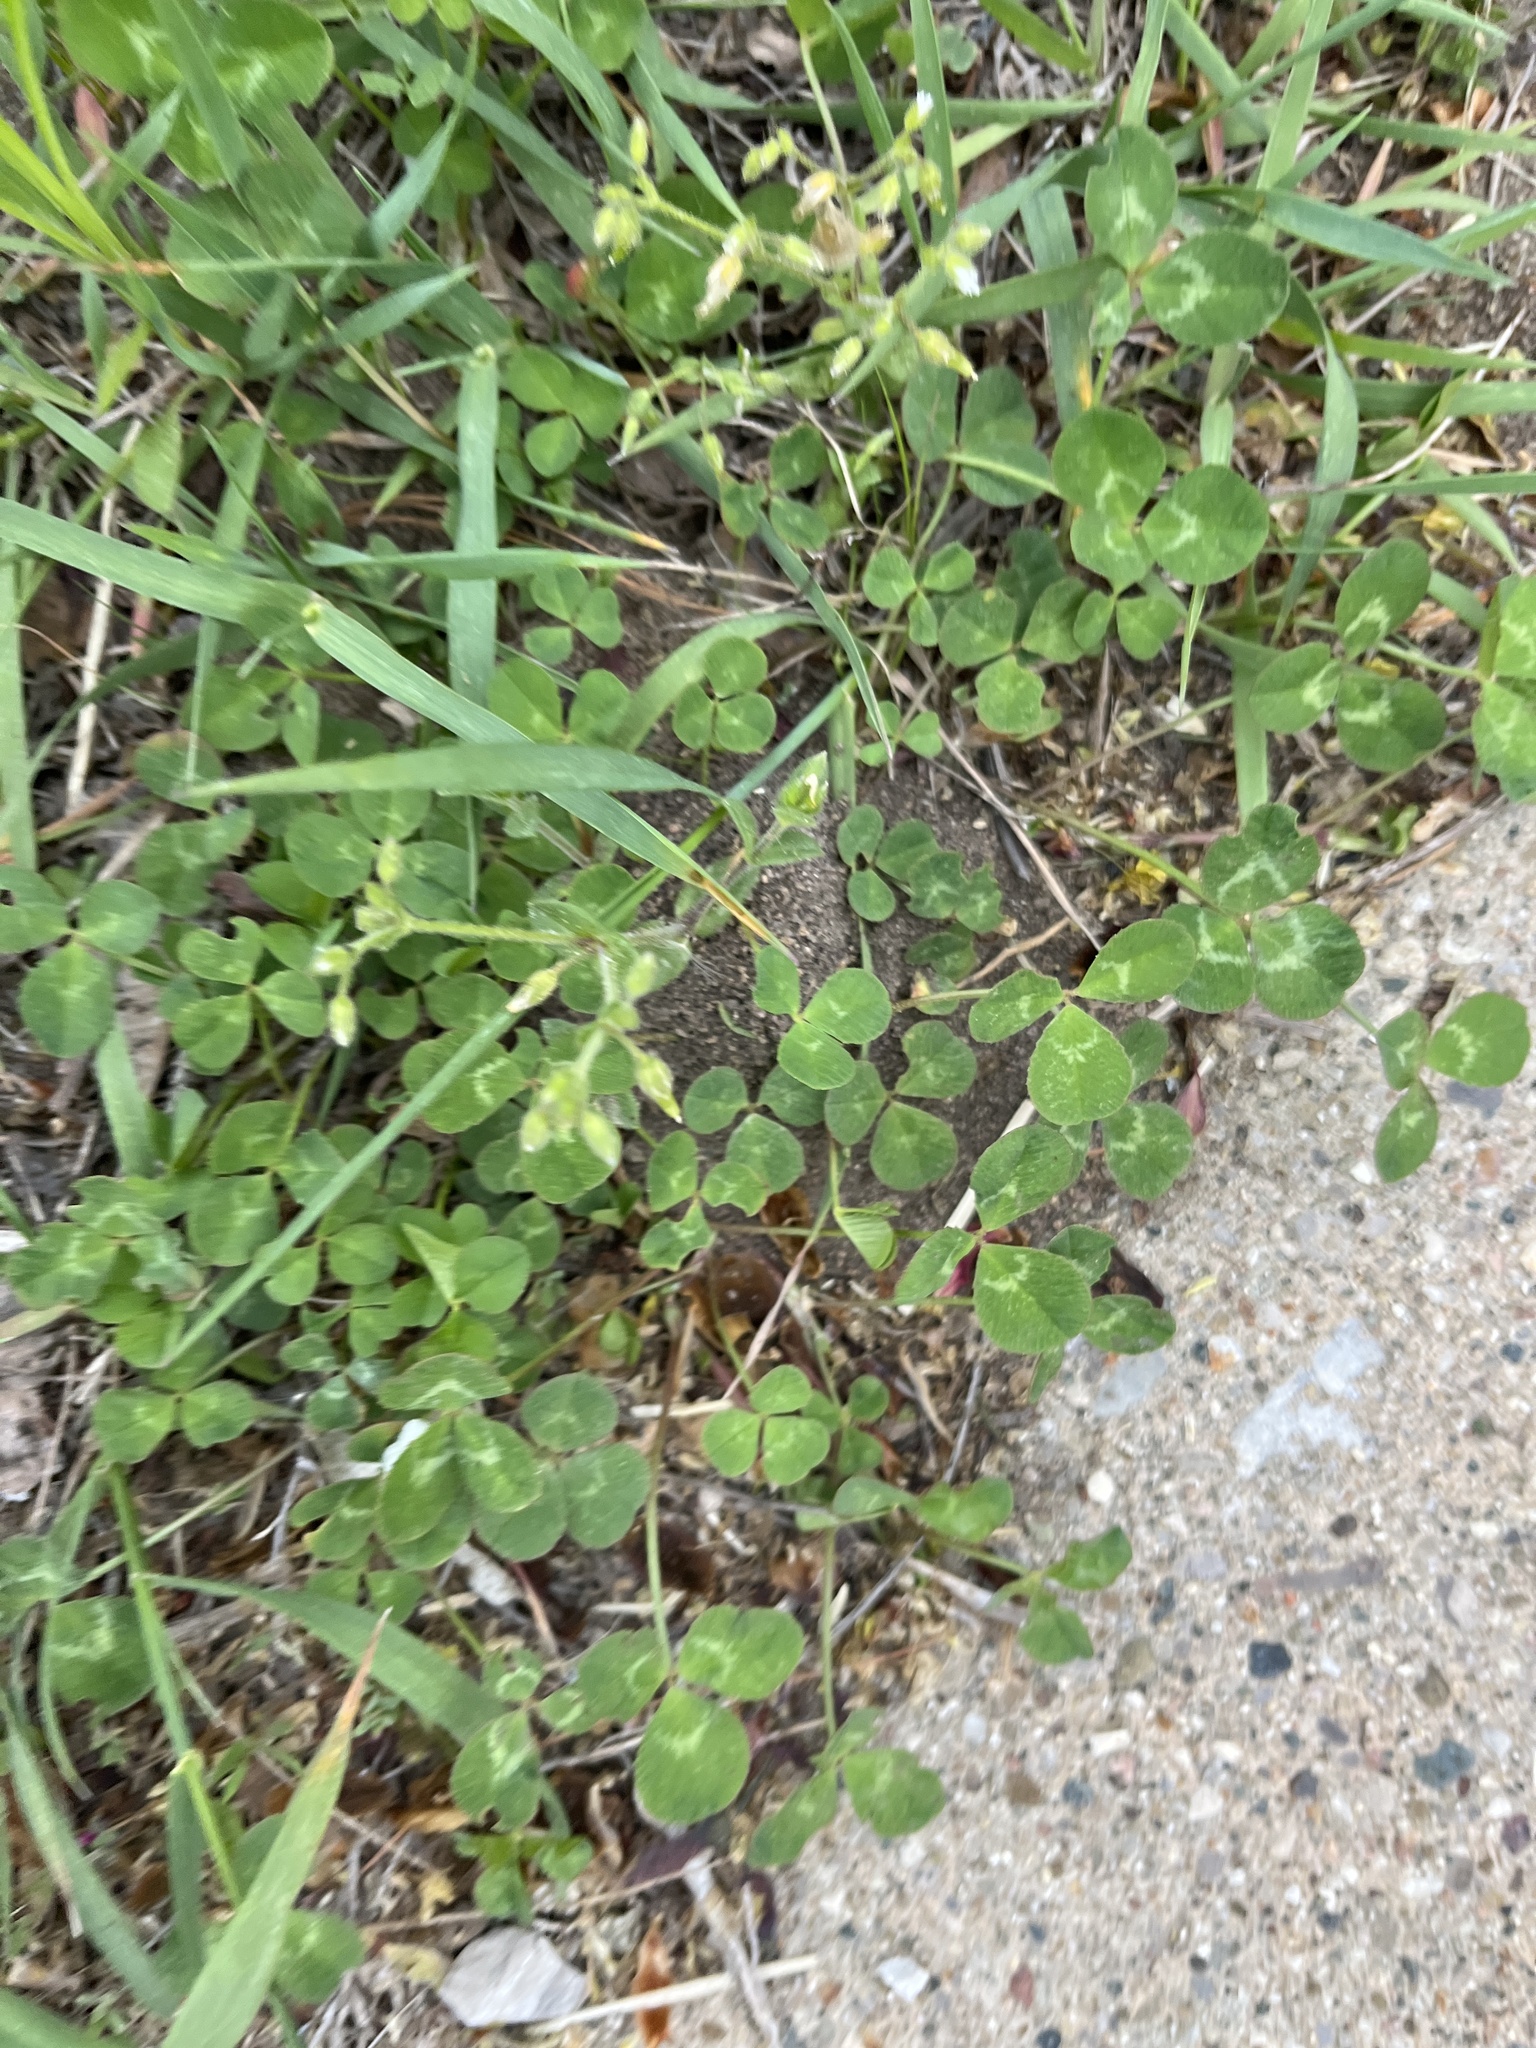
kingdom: Plantae
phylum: Tracheophyta
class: Magnoliopsida
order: Fabales
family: Fabaceae
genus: Medicago
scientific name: Medicago lupulina
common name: Black medick
